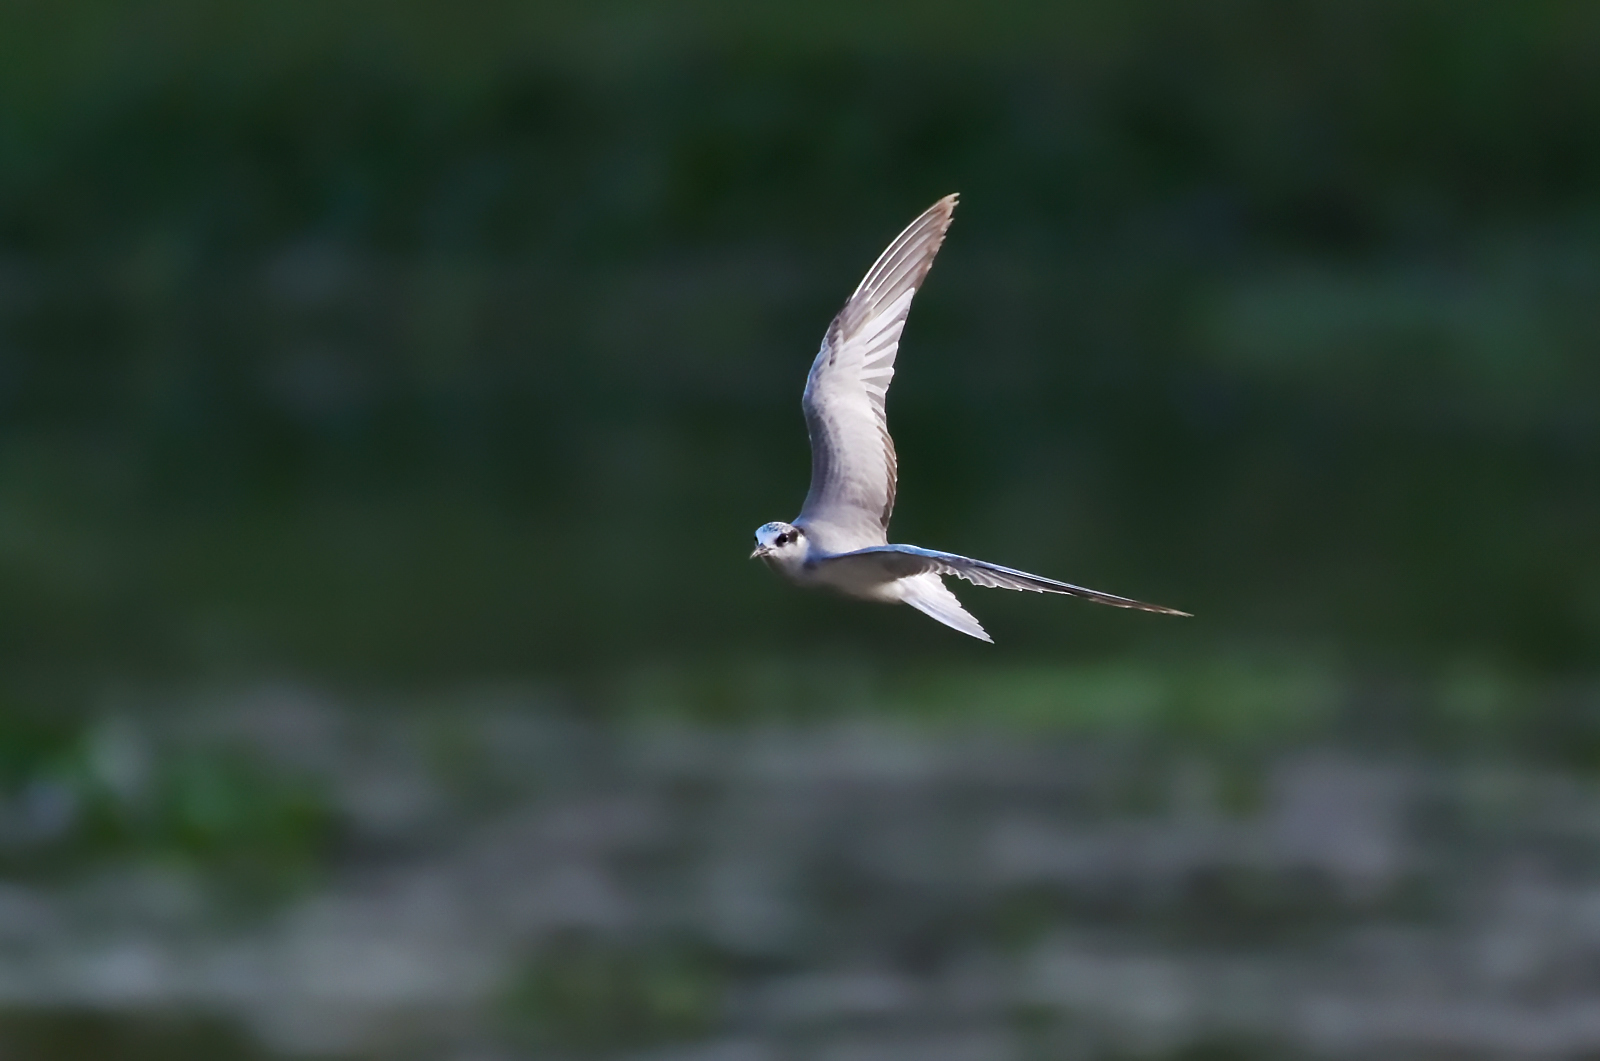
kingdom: Animalia
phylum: Chordata
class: Aves
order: Charadriiformes
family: Laridae
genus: Chlidonias
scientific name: Chlidonias hybrida
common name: Whiskered tern
